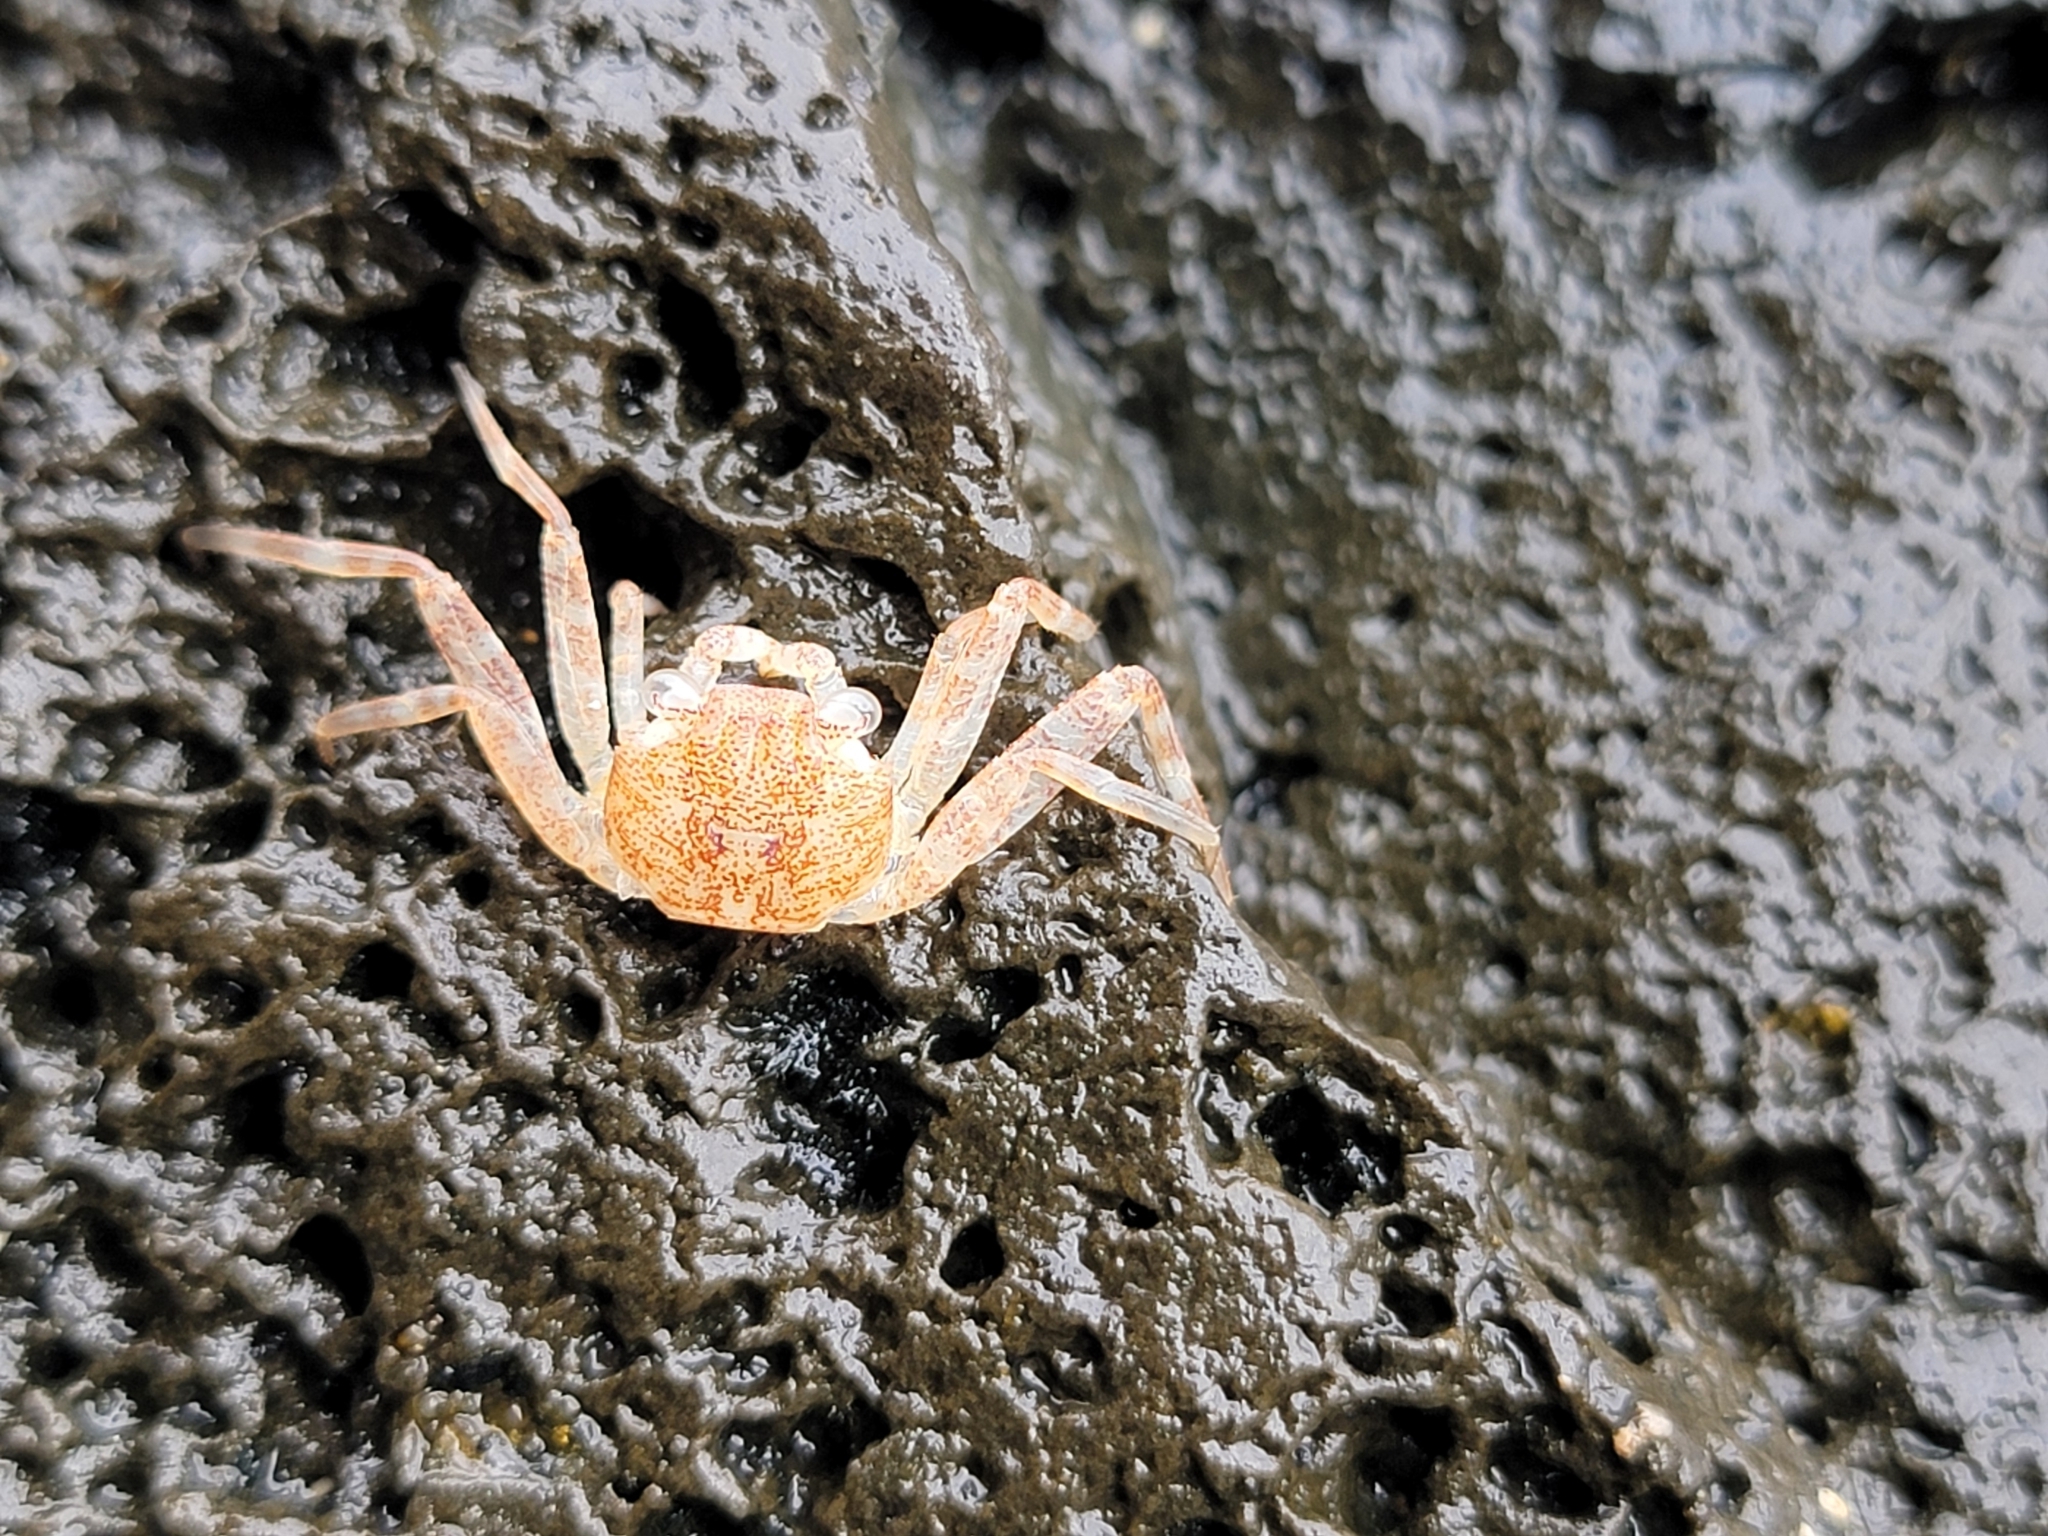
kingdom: Animalia
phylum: Arthropoda
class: Malacostraca
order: Decapoda
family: Grapsidae
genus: Grapsus
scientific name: Grapsus tenuicrustatus
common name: Natal lightfoot crab
